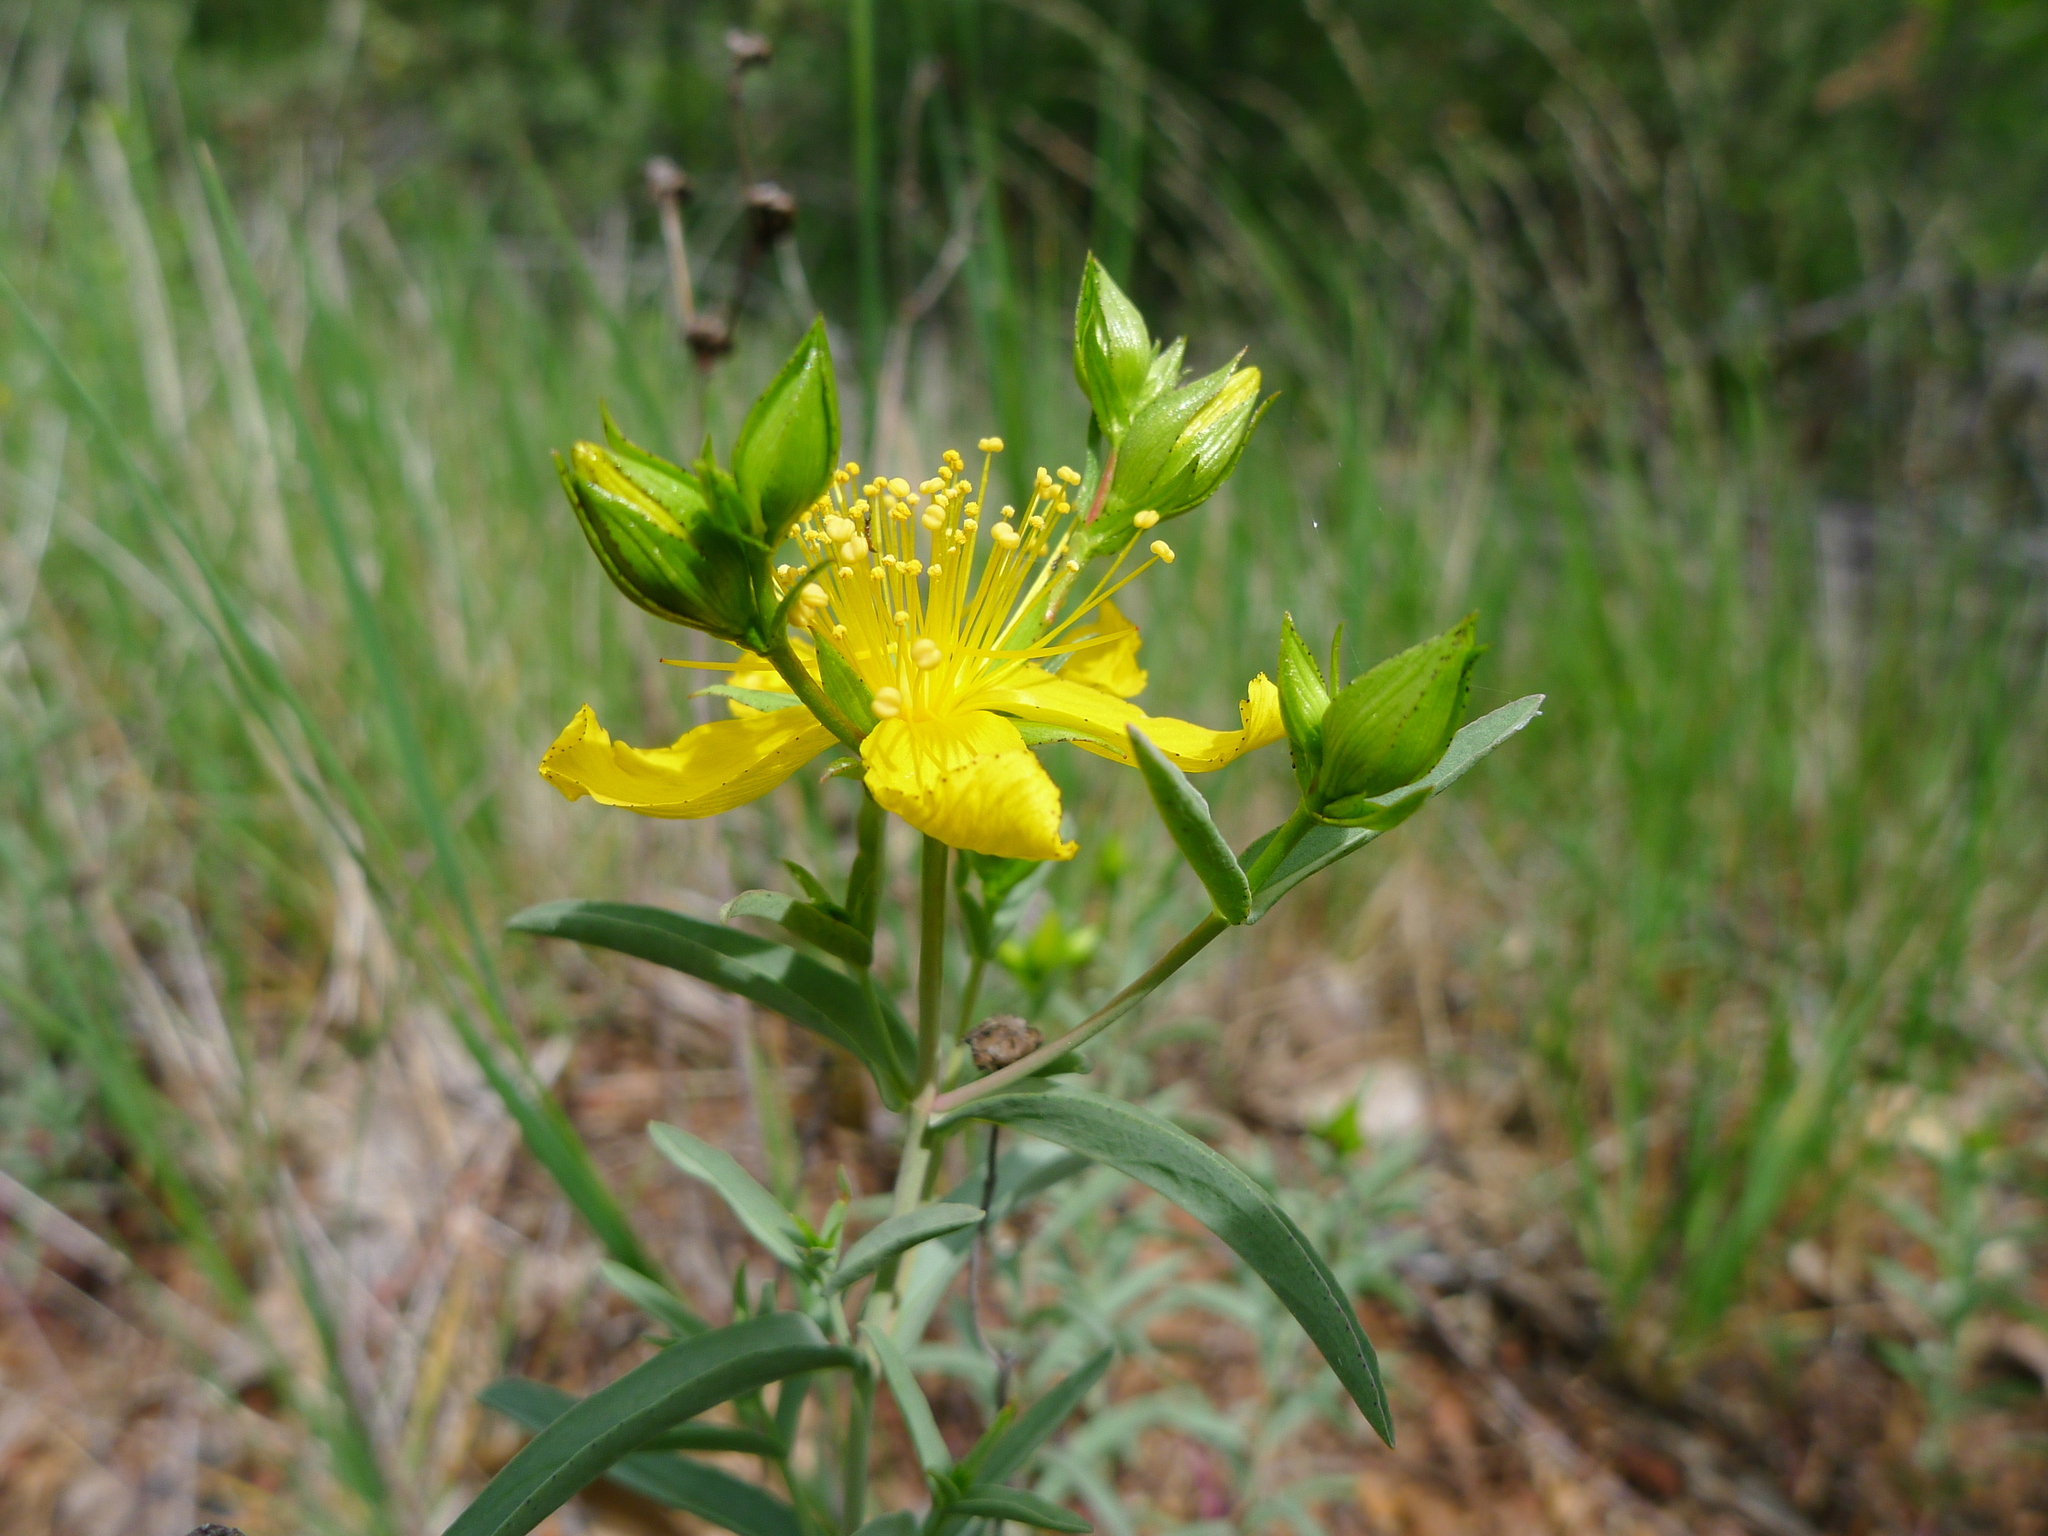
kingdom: Plantae
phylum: Tracheophyta
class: Magnoliopsida
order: Malpighiales
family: Hypericaceae
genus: Hypericum
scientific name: Hypericum concinnum
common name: Gold-wire
